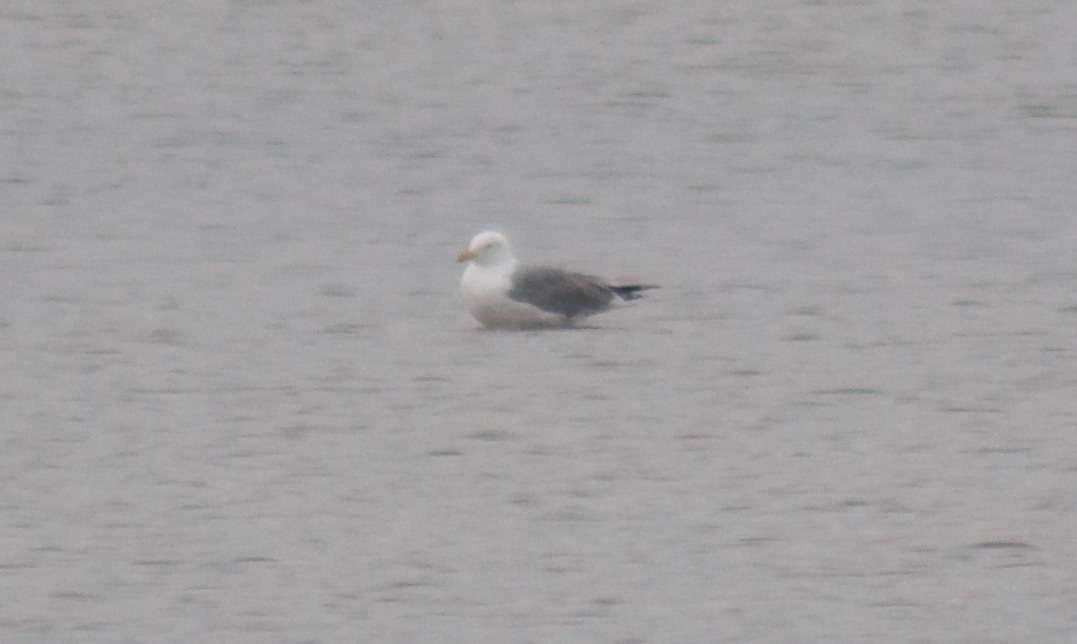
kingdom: Animalia
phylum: Chordata
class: Aves
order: Charadriiformes
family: Laridae
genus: Larus
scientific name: Larus argentatus
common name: Herring gull
